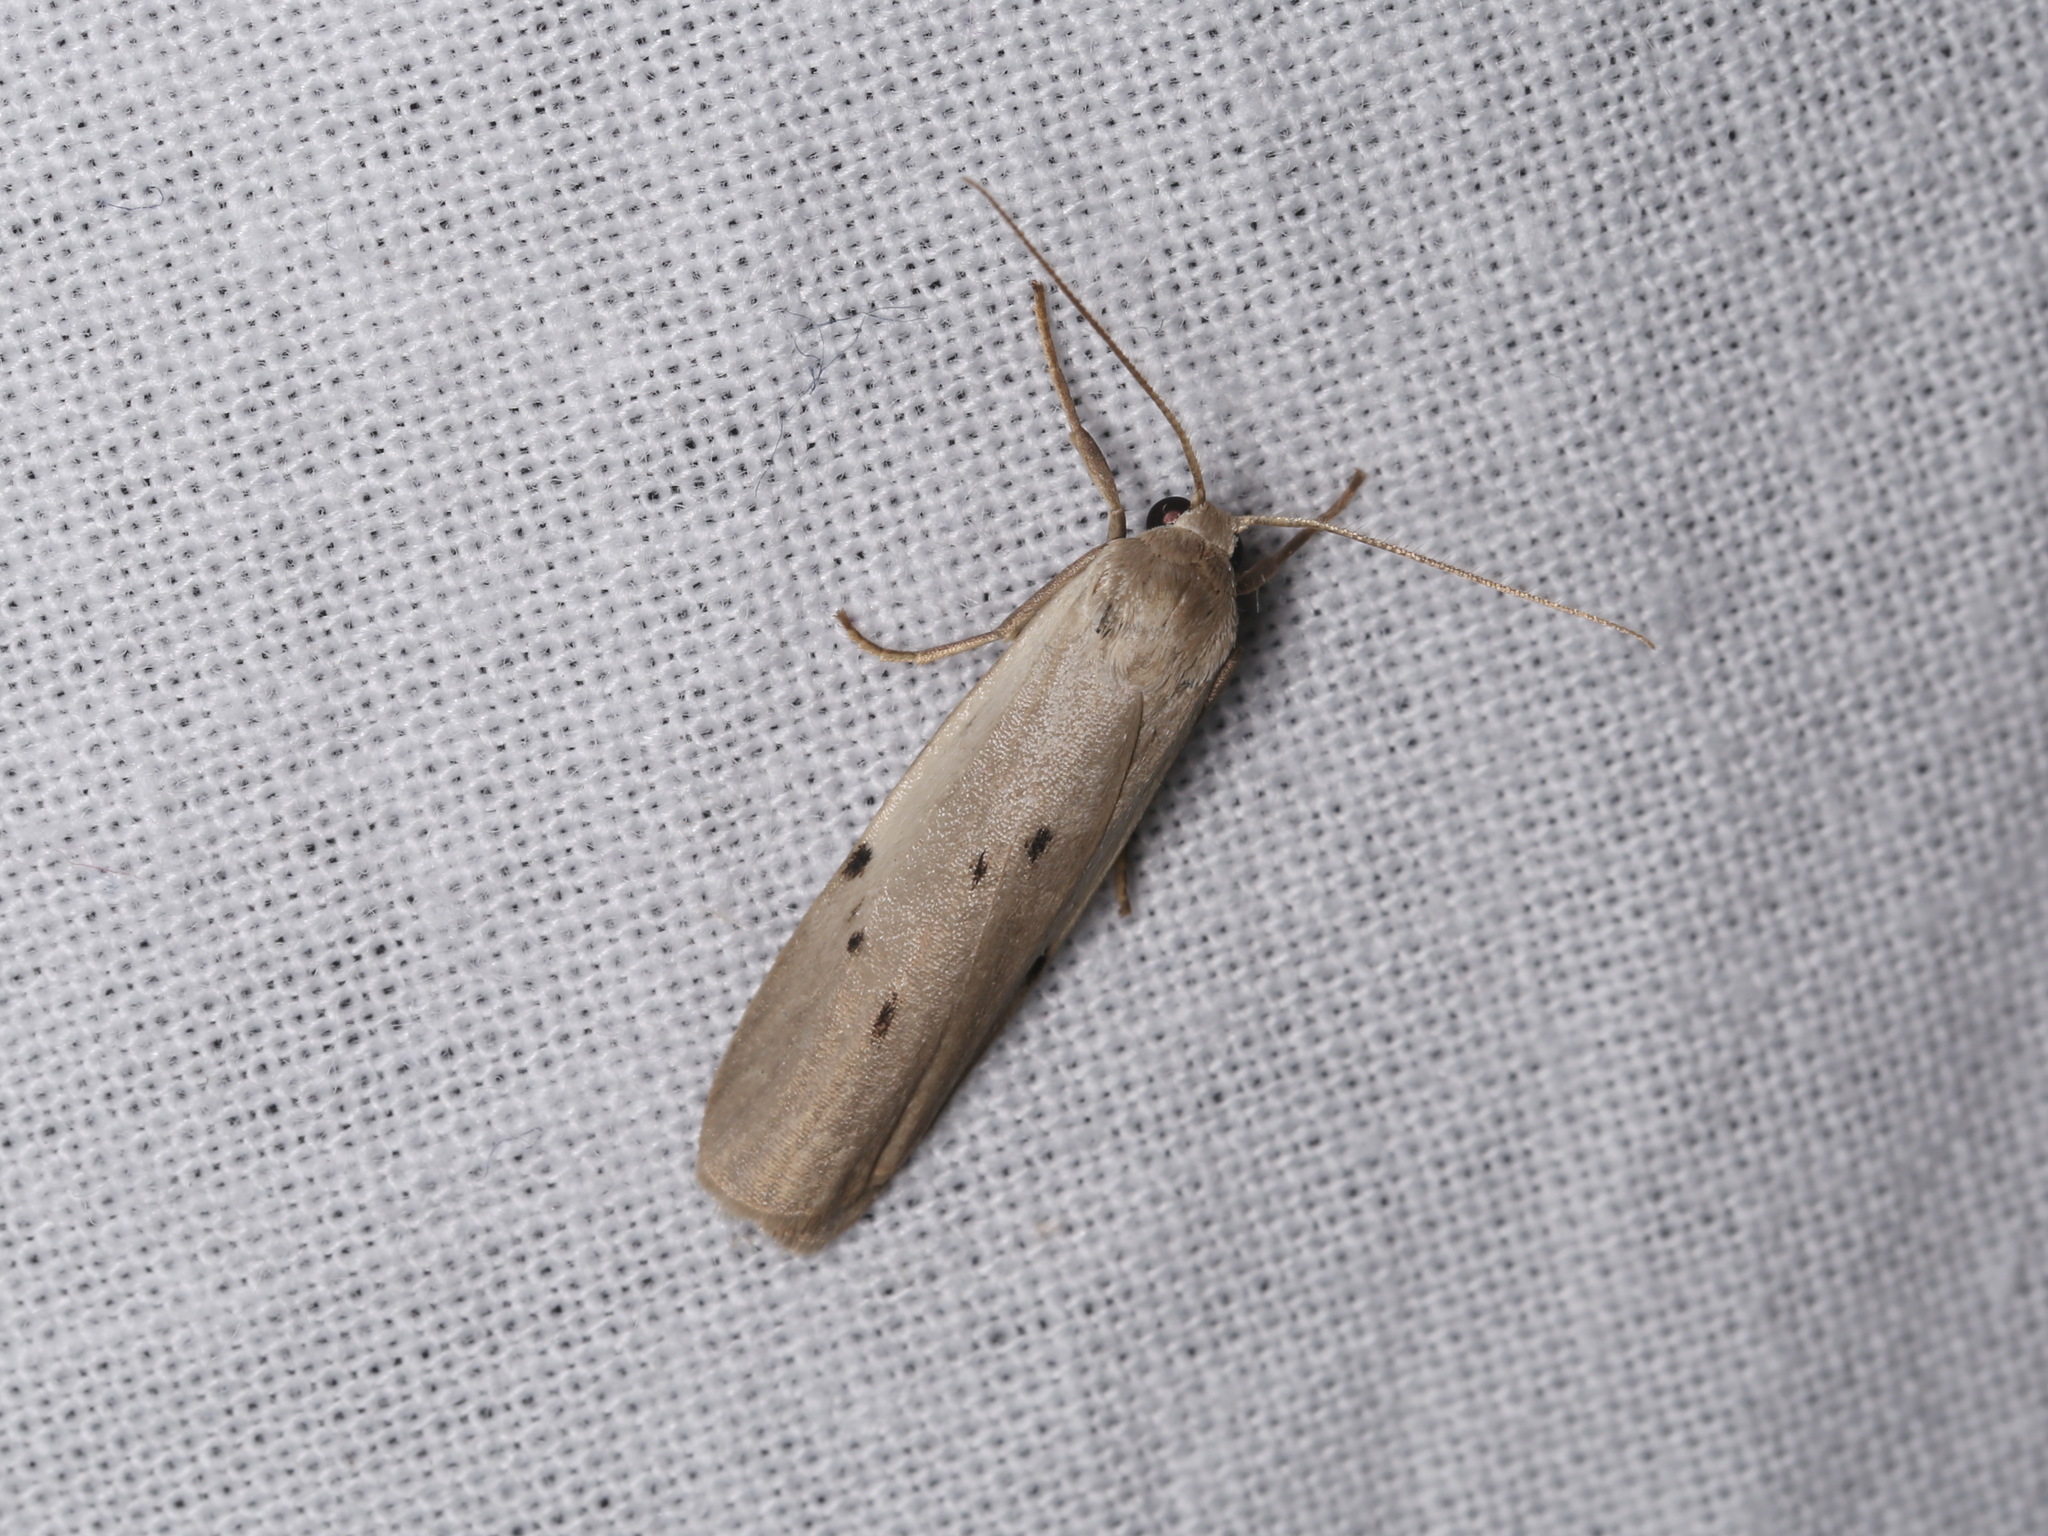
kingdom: Animalia
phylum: Arthropoda
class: Insecta
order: Lepidoptera
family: Erebidae
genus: Pelosia
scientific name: Pelosia muscerda
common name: Dotted footman
